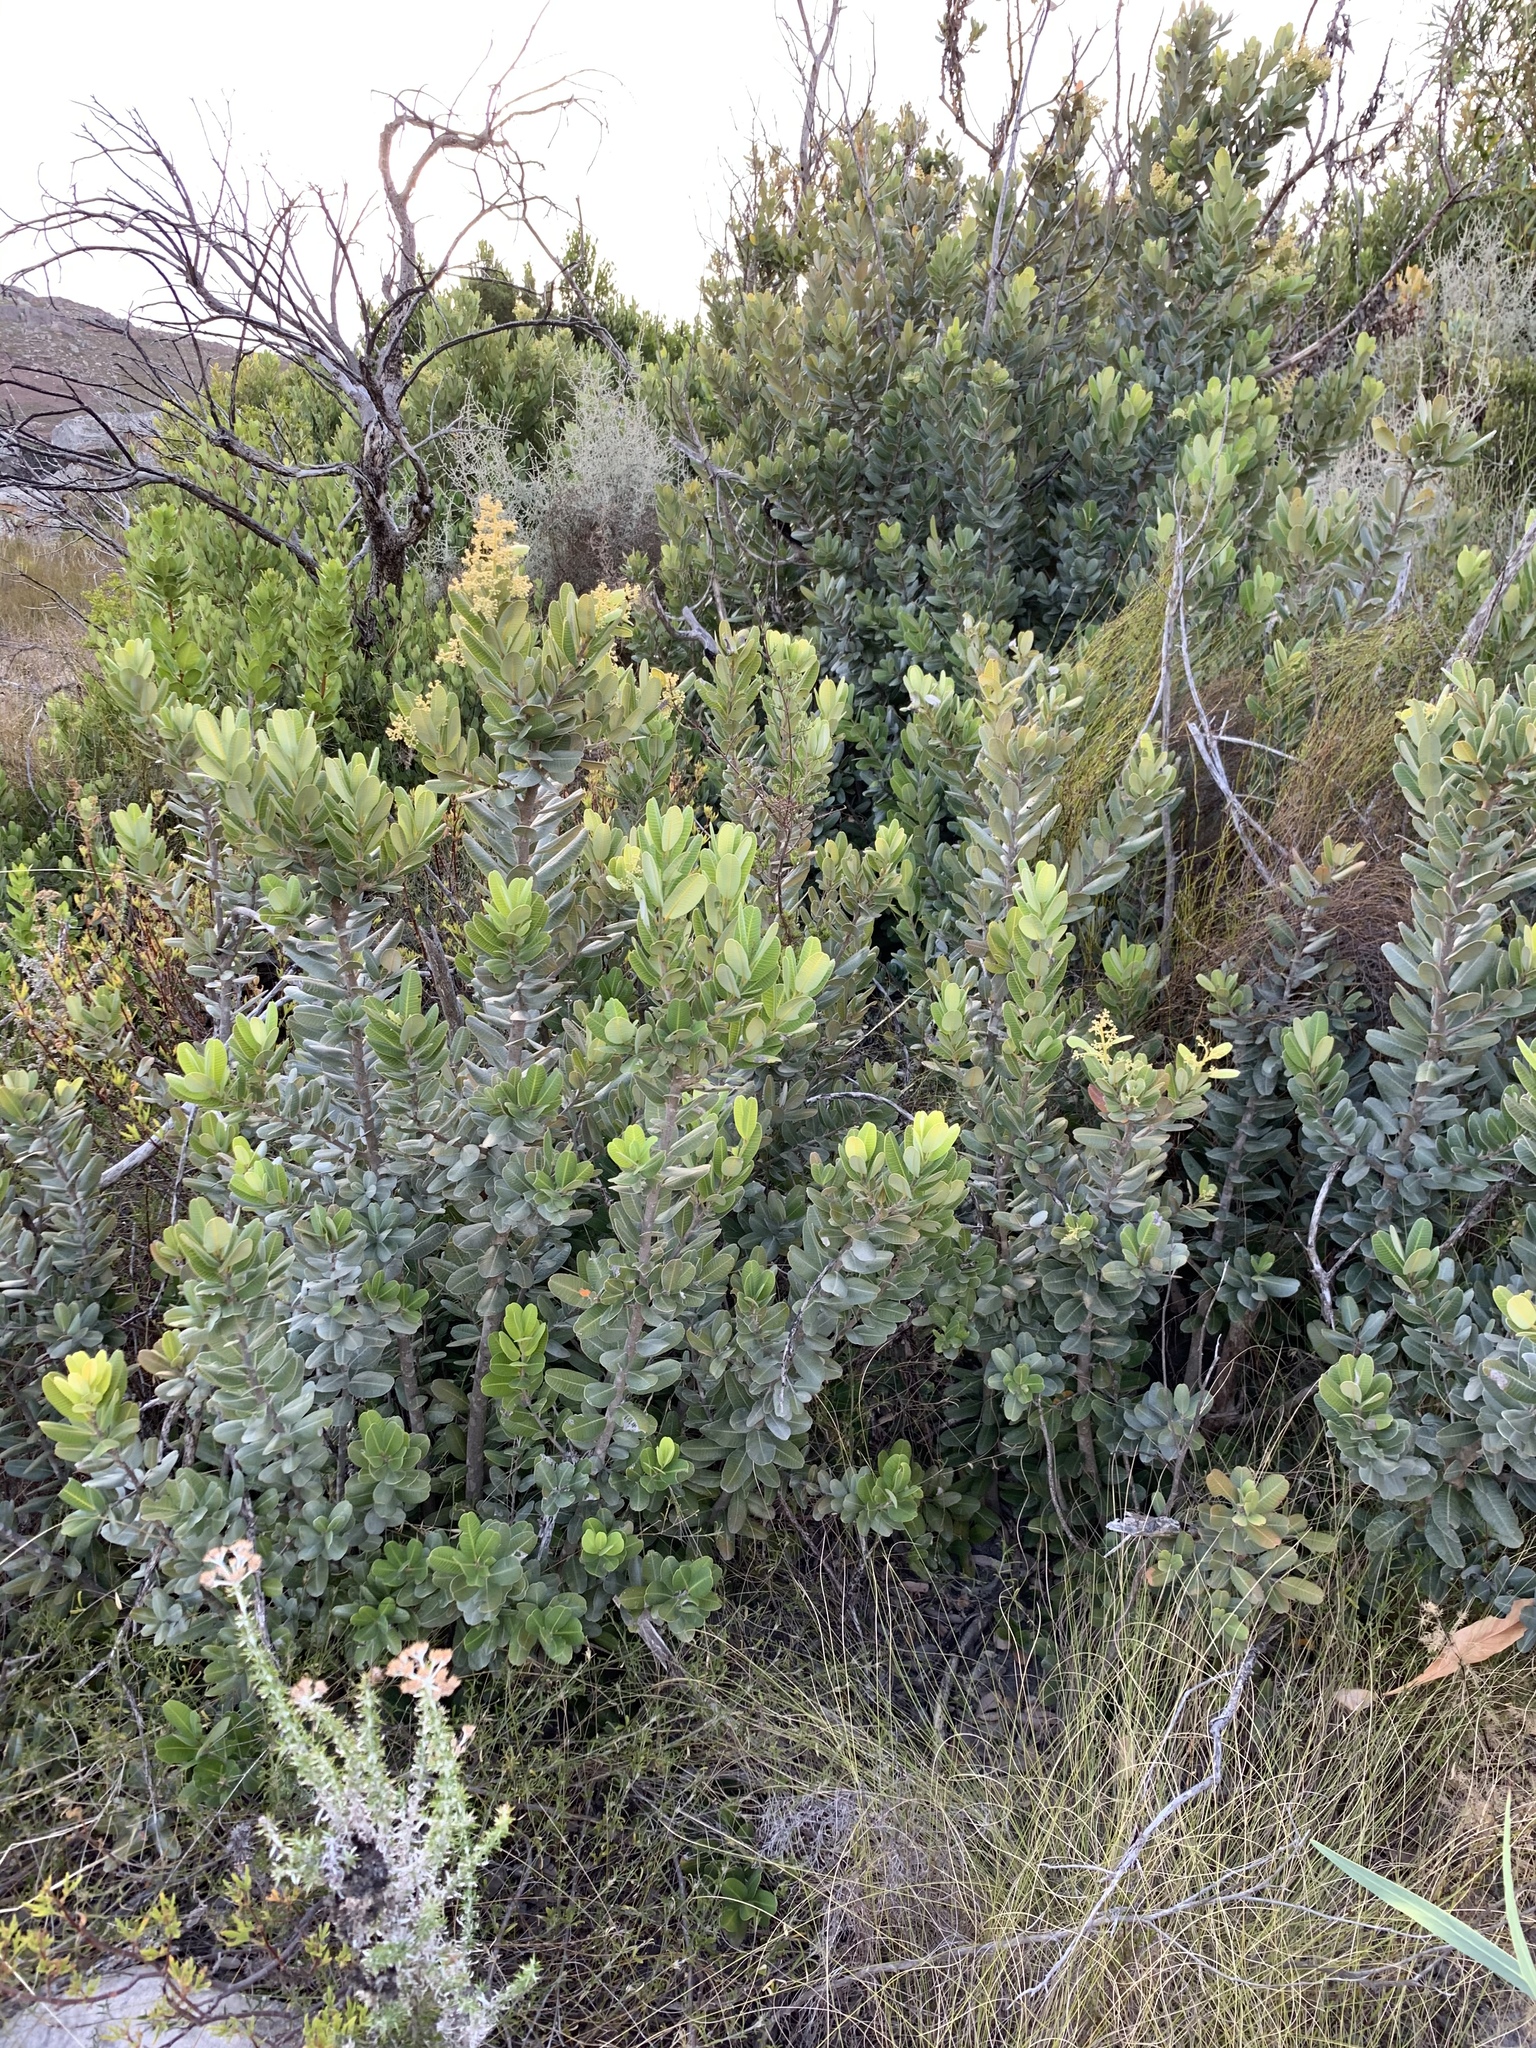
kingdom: Plantae
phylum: Tracheophyta
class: Magnoliopsida
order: Sapindales
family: Anacardiaceae
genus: Heeria
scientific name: Heeria argentea
